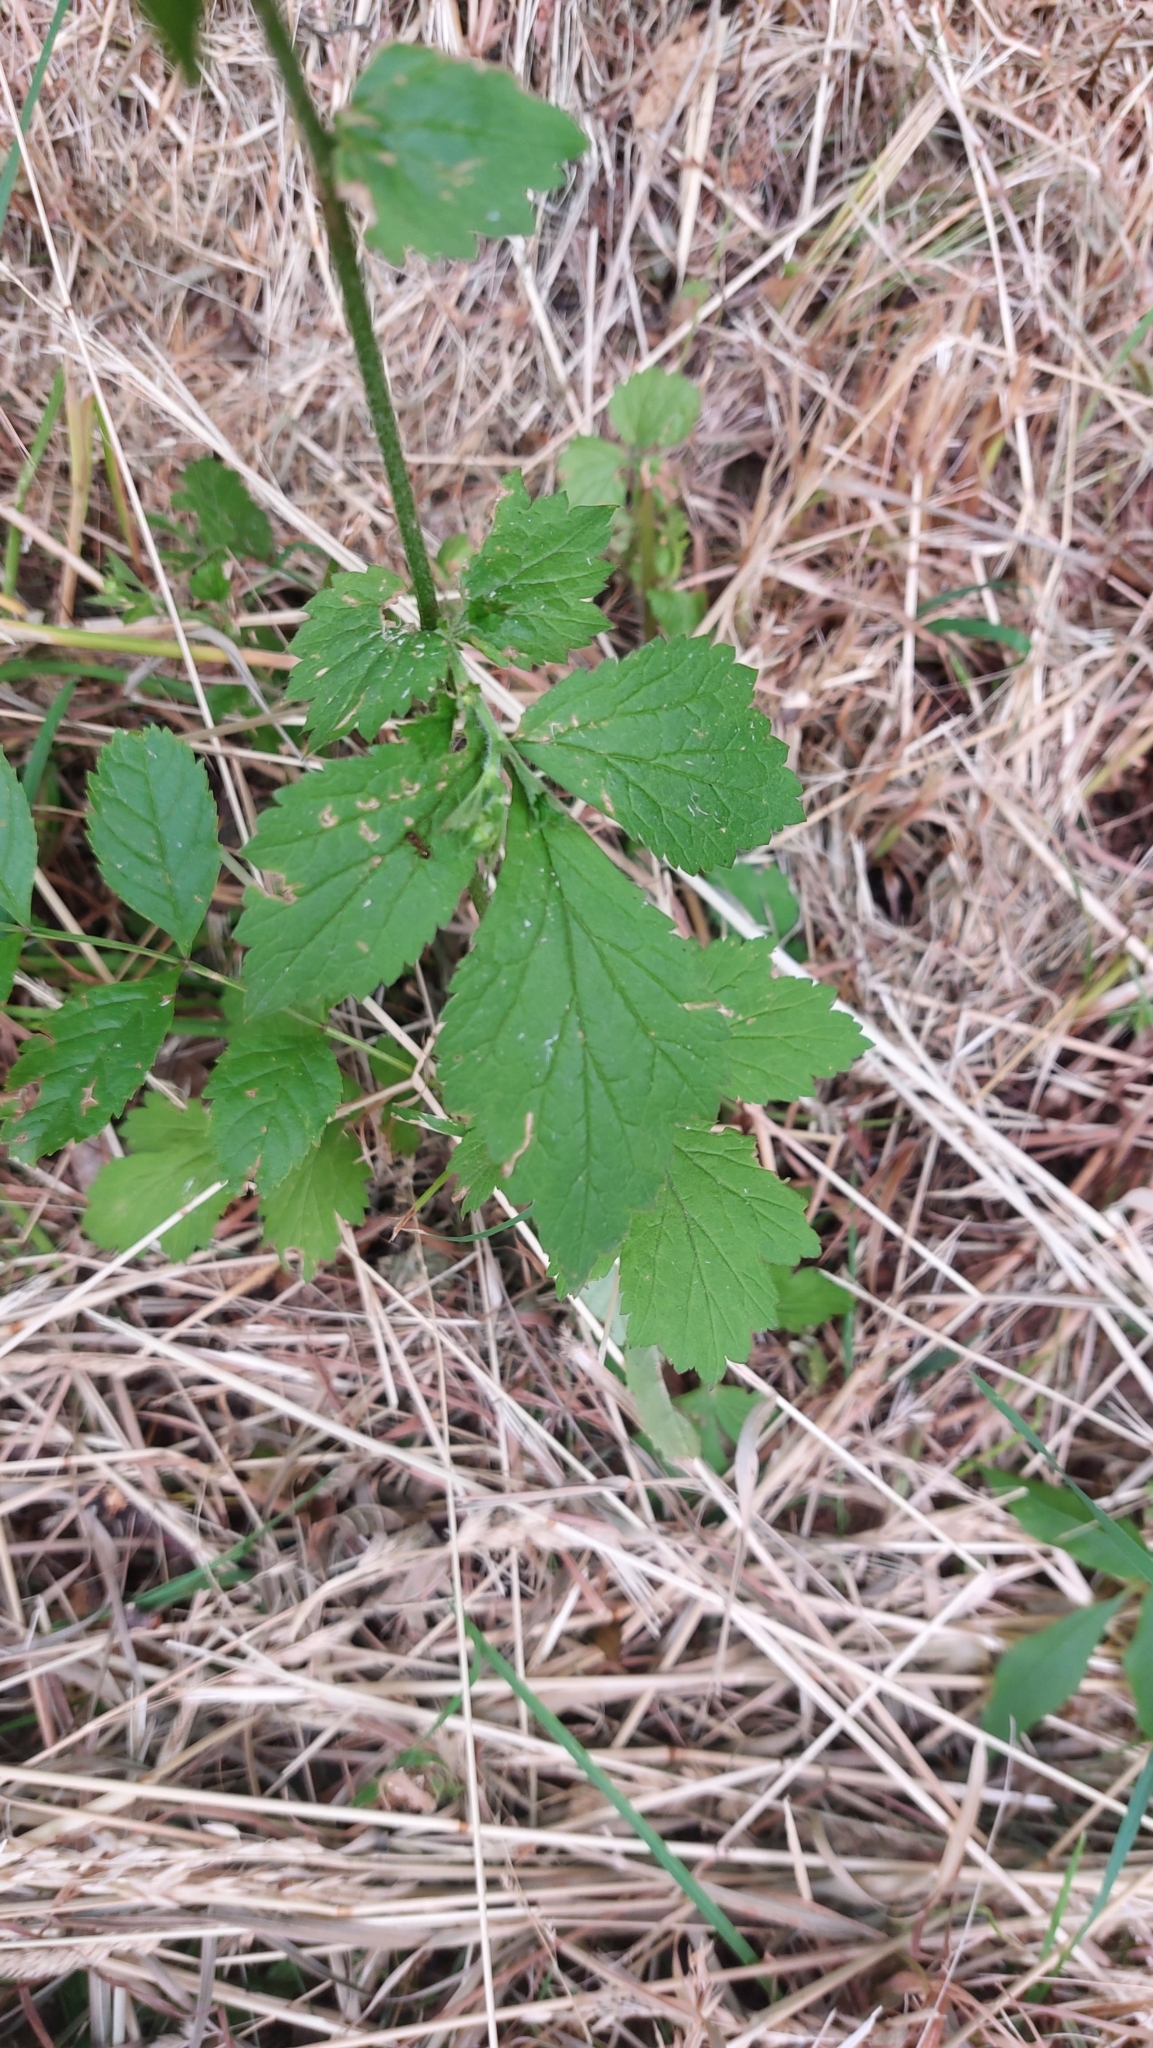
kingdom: Plantae
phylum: Tracheophyta
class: Magnoliopsida
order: Rosales
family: Rosaceae
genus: Geum
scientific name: Geum urbanum
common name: Wood avens
